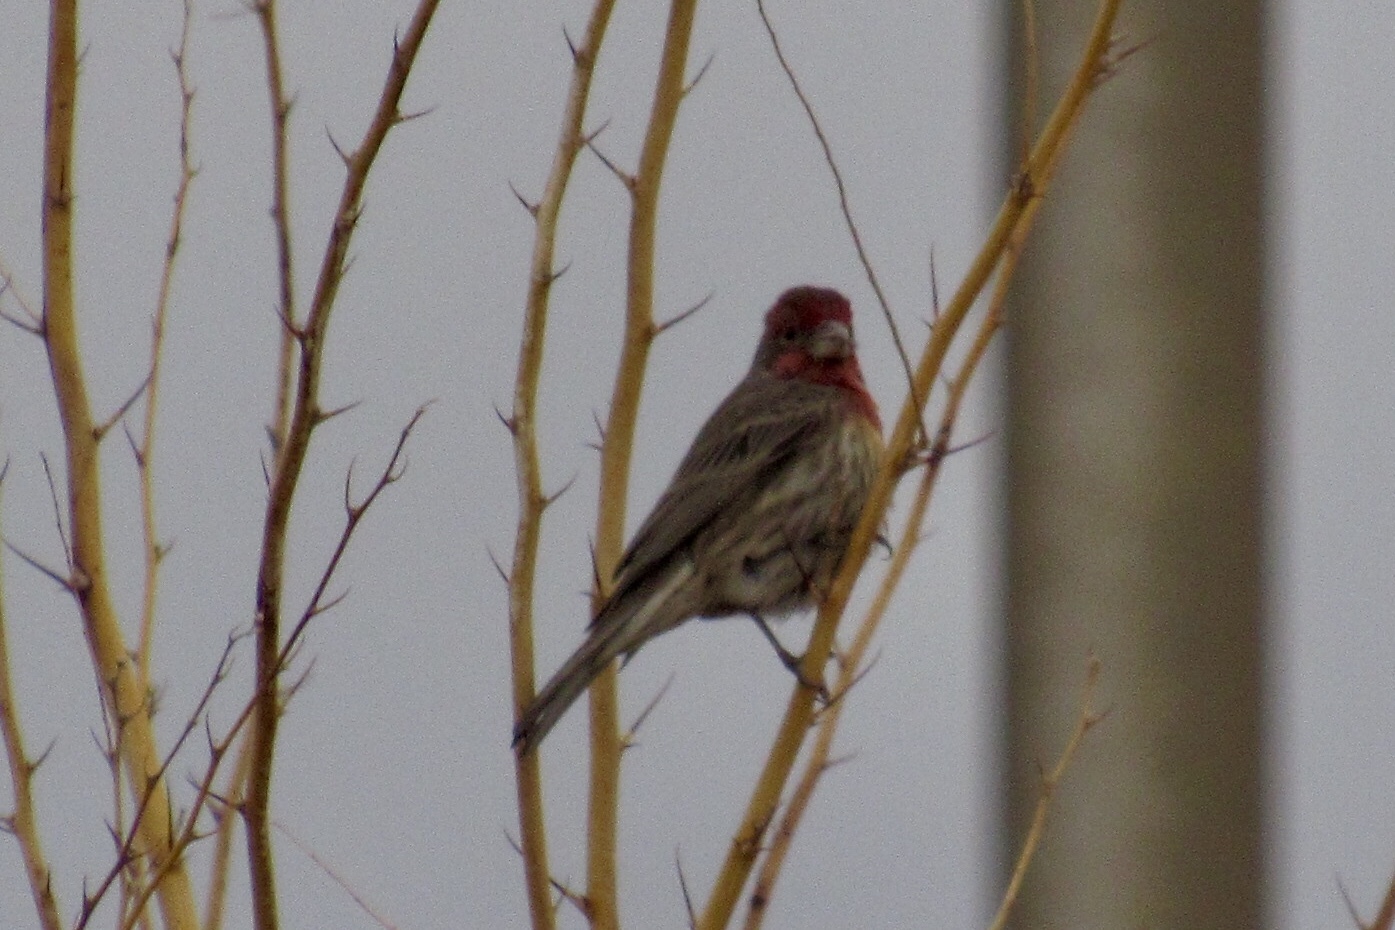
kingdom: Animalia
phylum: Chordata
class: Aves
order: Passeriformes
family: Fringillidae
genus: Haemorhous
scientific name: Haemorhous mexicanus
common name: House finch
